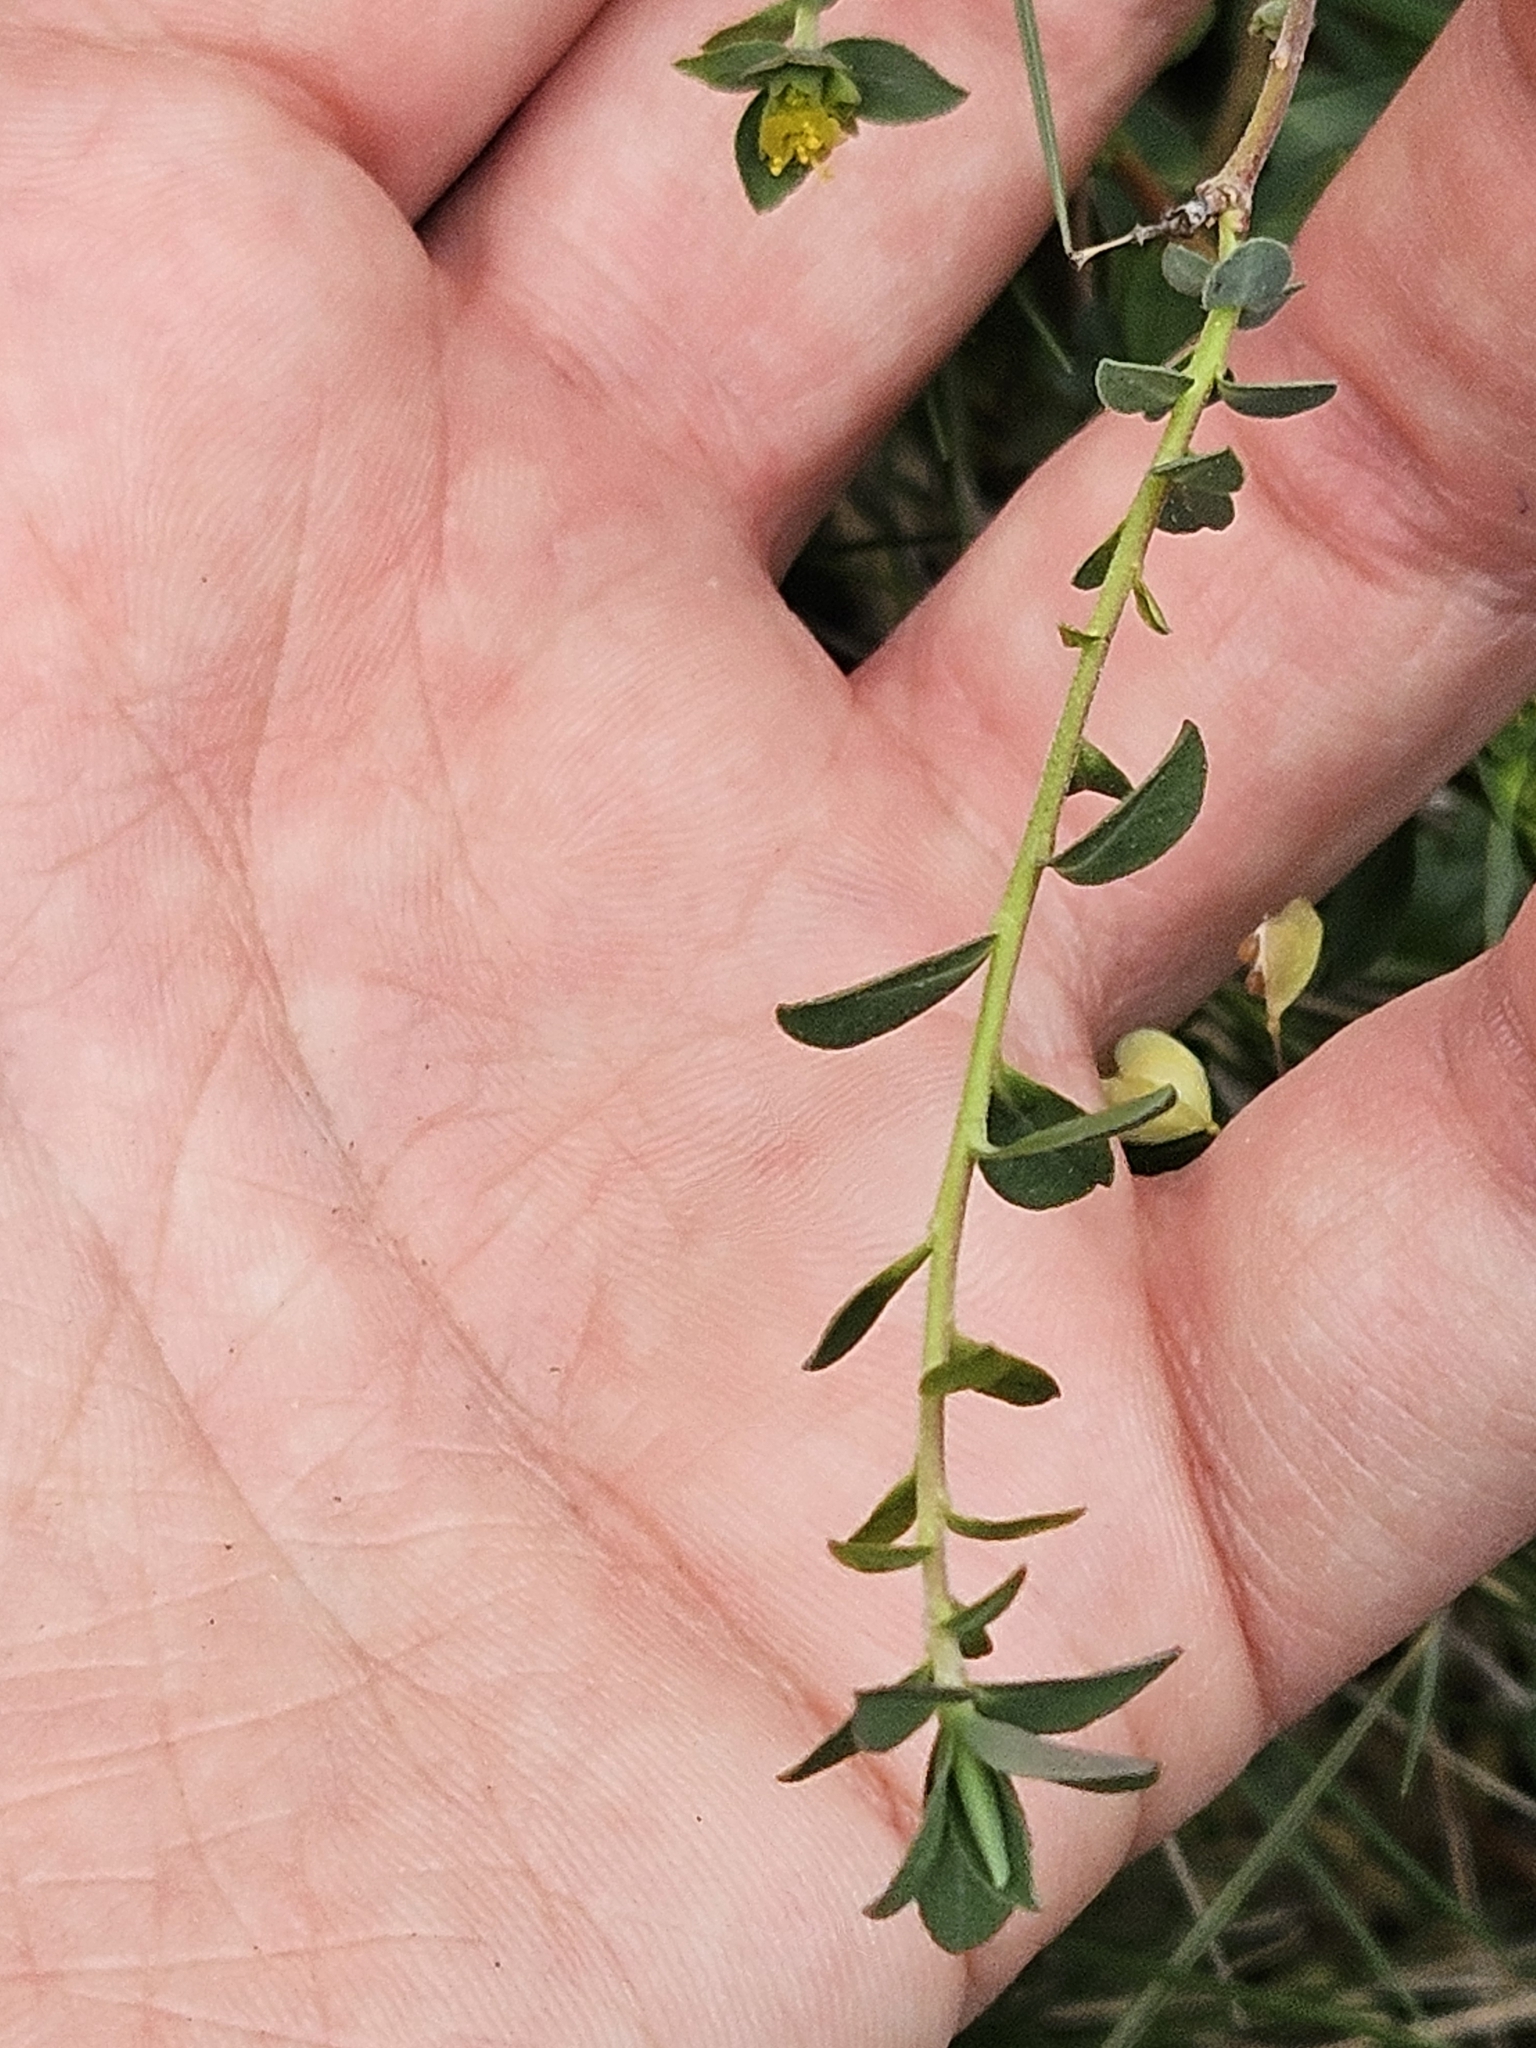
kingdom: Plantae
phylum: Tracheophyta
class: Magnoliopsida
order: Malpighiales
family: Euphorbiaceae
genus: Euphorbia
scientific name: Euphorbia flavicoma
